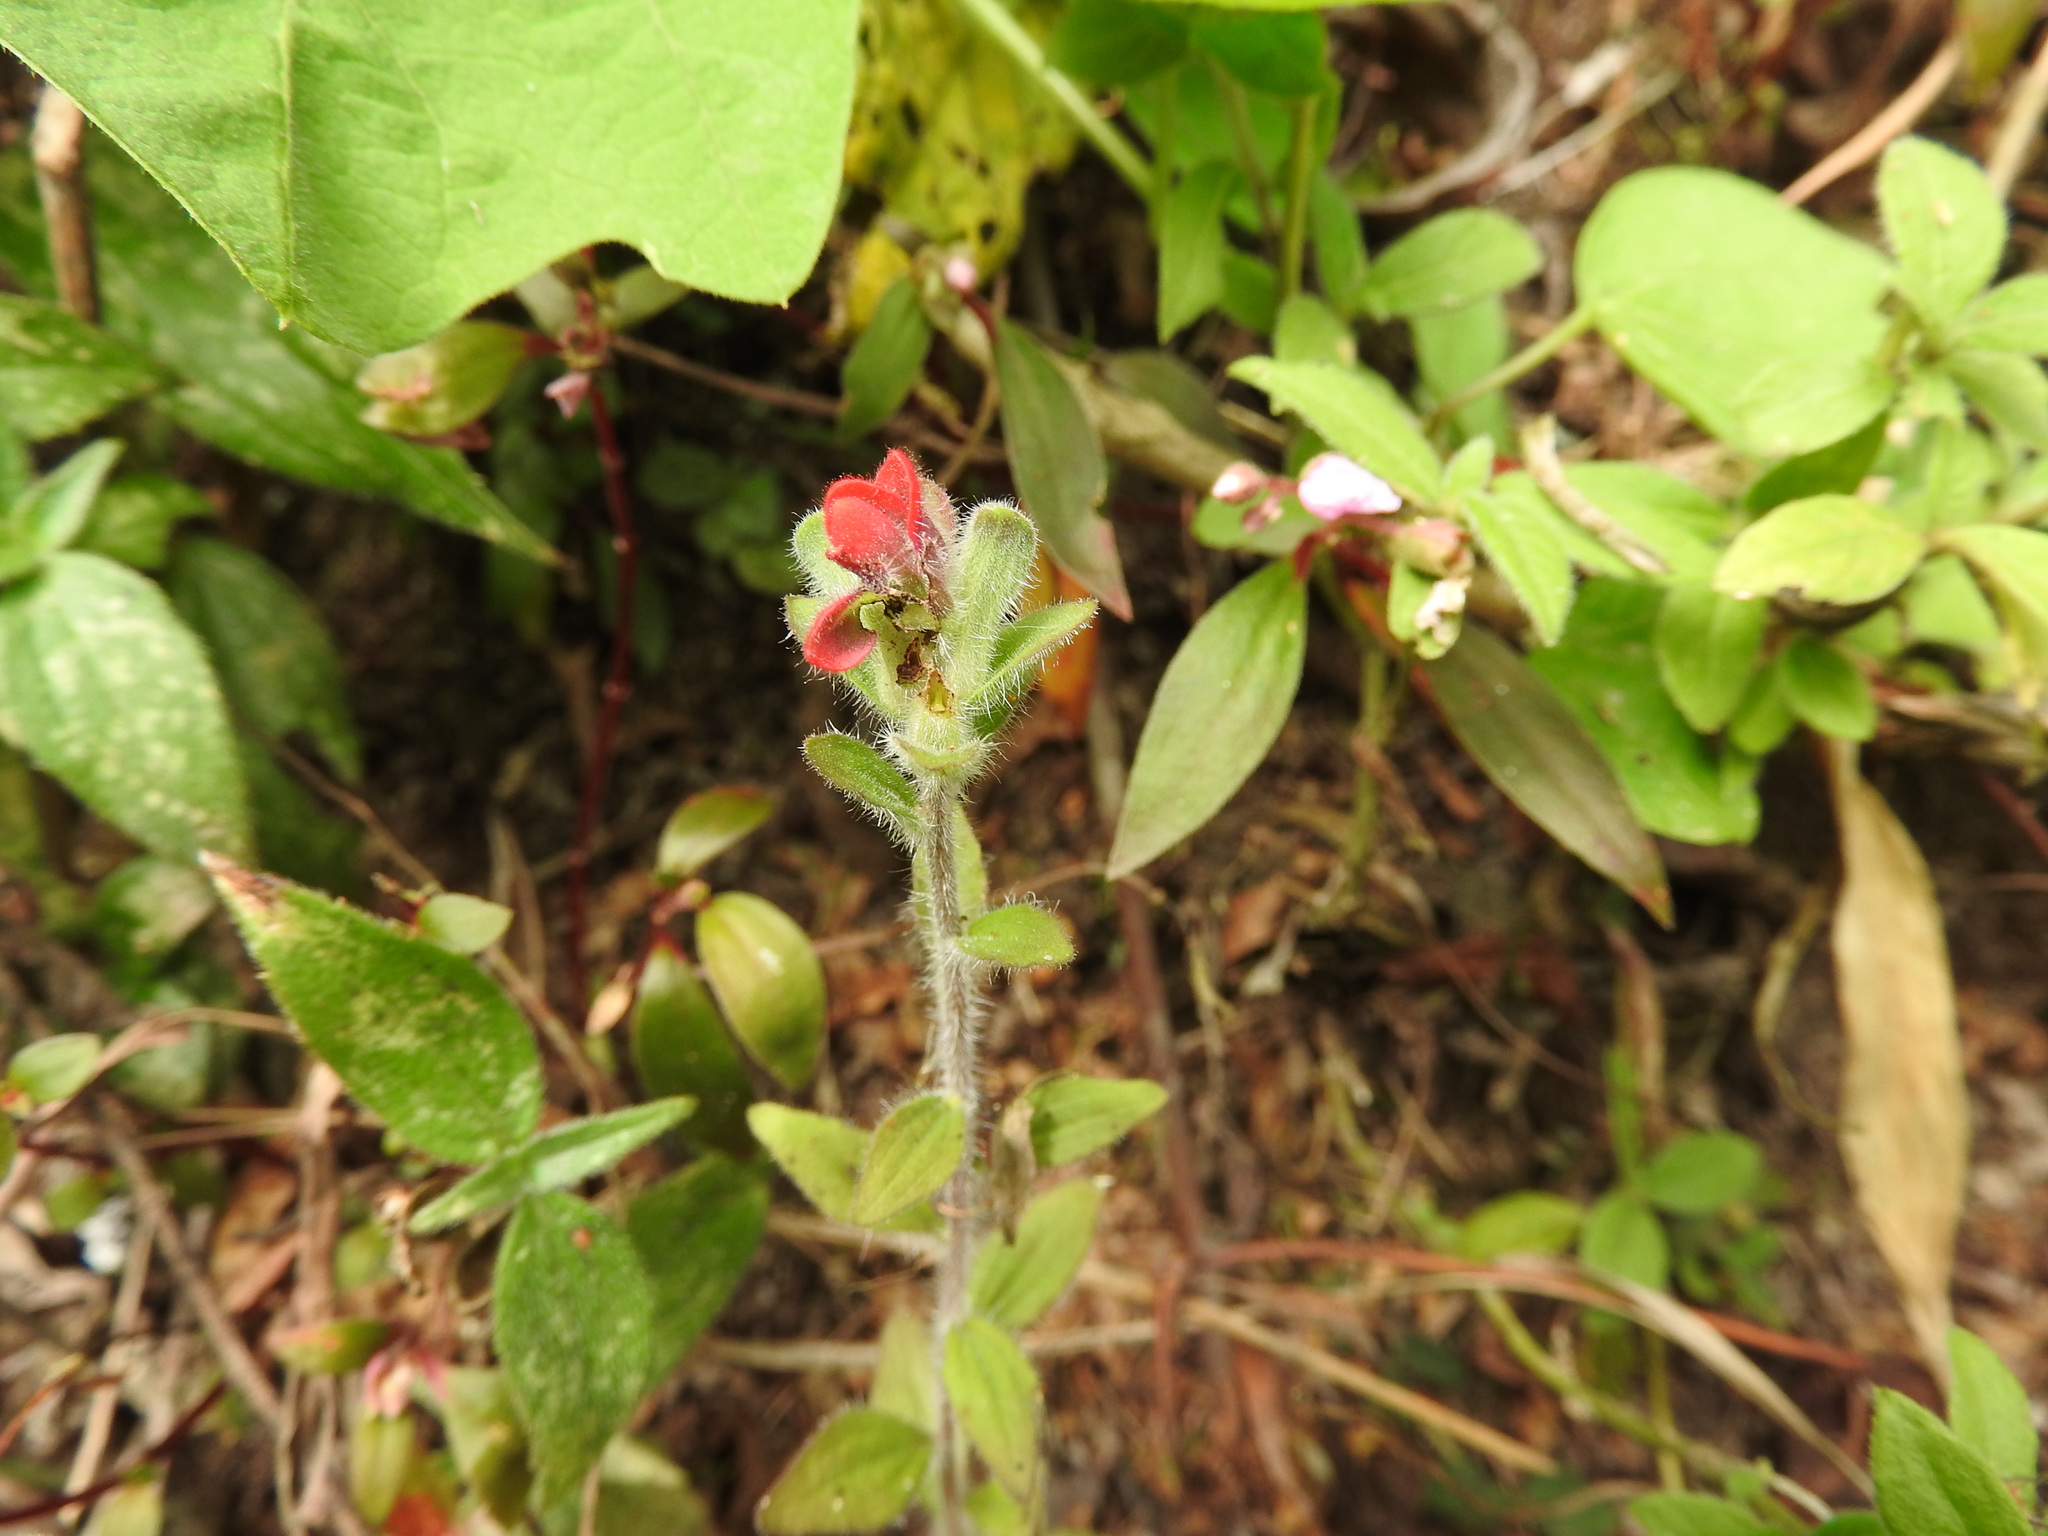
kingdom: Plantae
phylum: Tracheophyta
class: Magnoliopsida
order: Lamiales
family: Orobanchaceae
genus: Castilleja
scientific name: Castilleja arvensis
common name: Indian paintbrush
